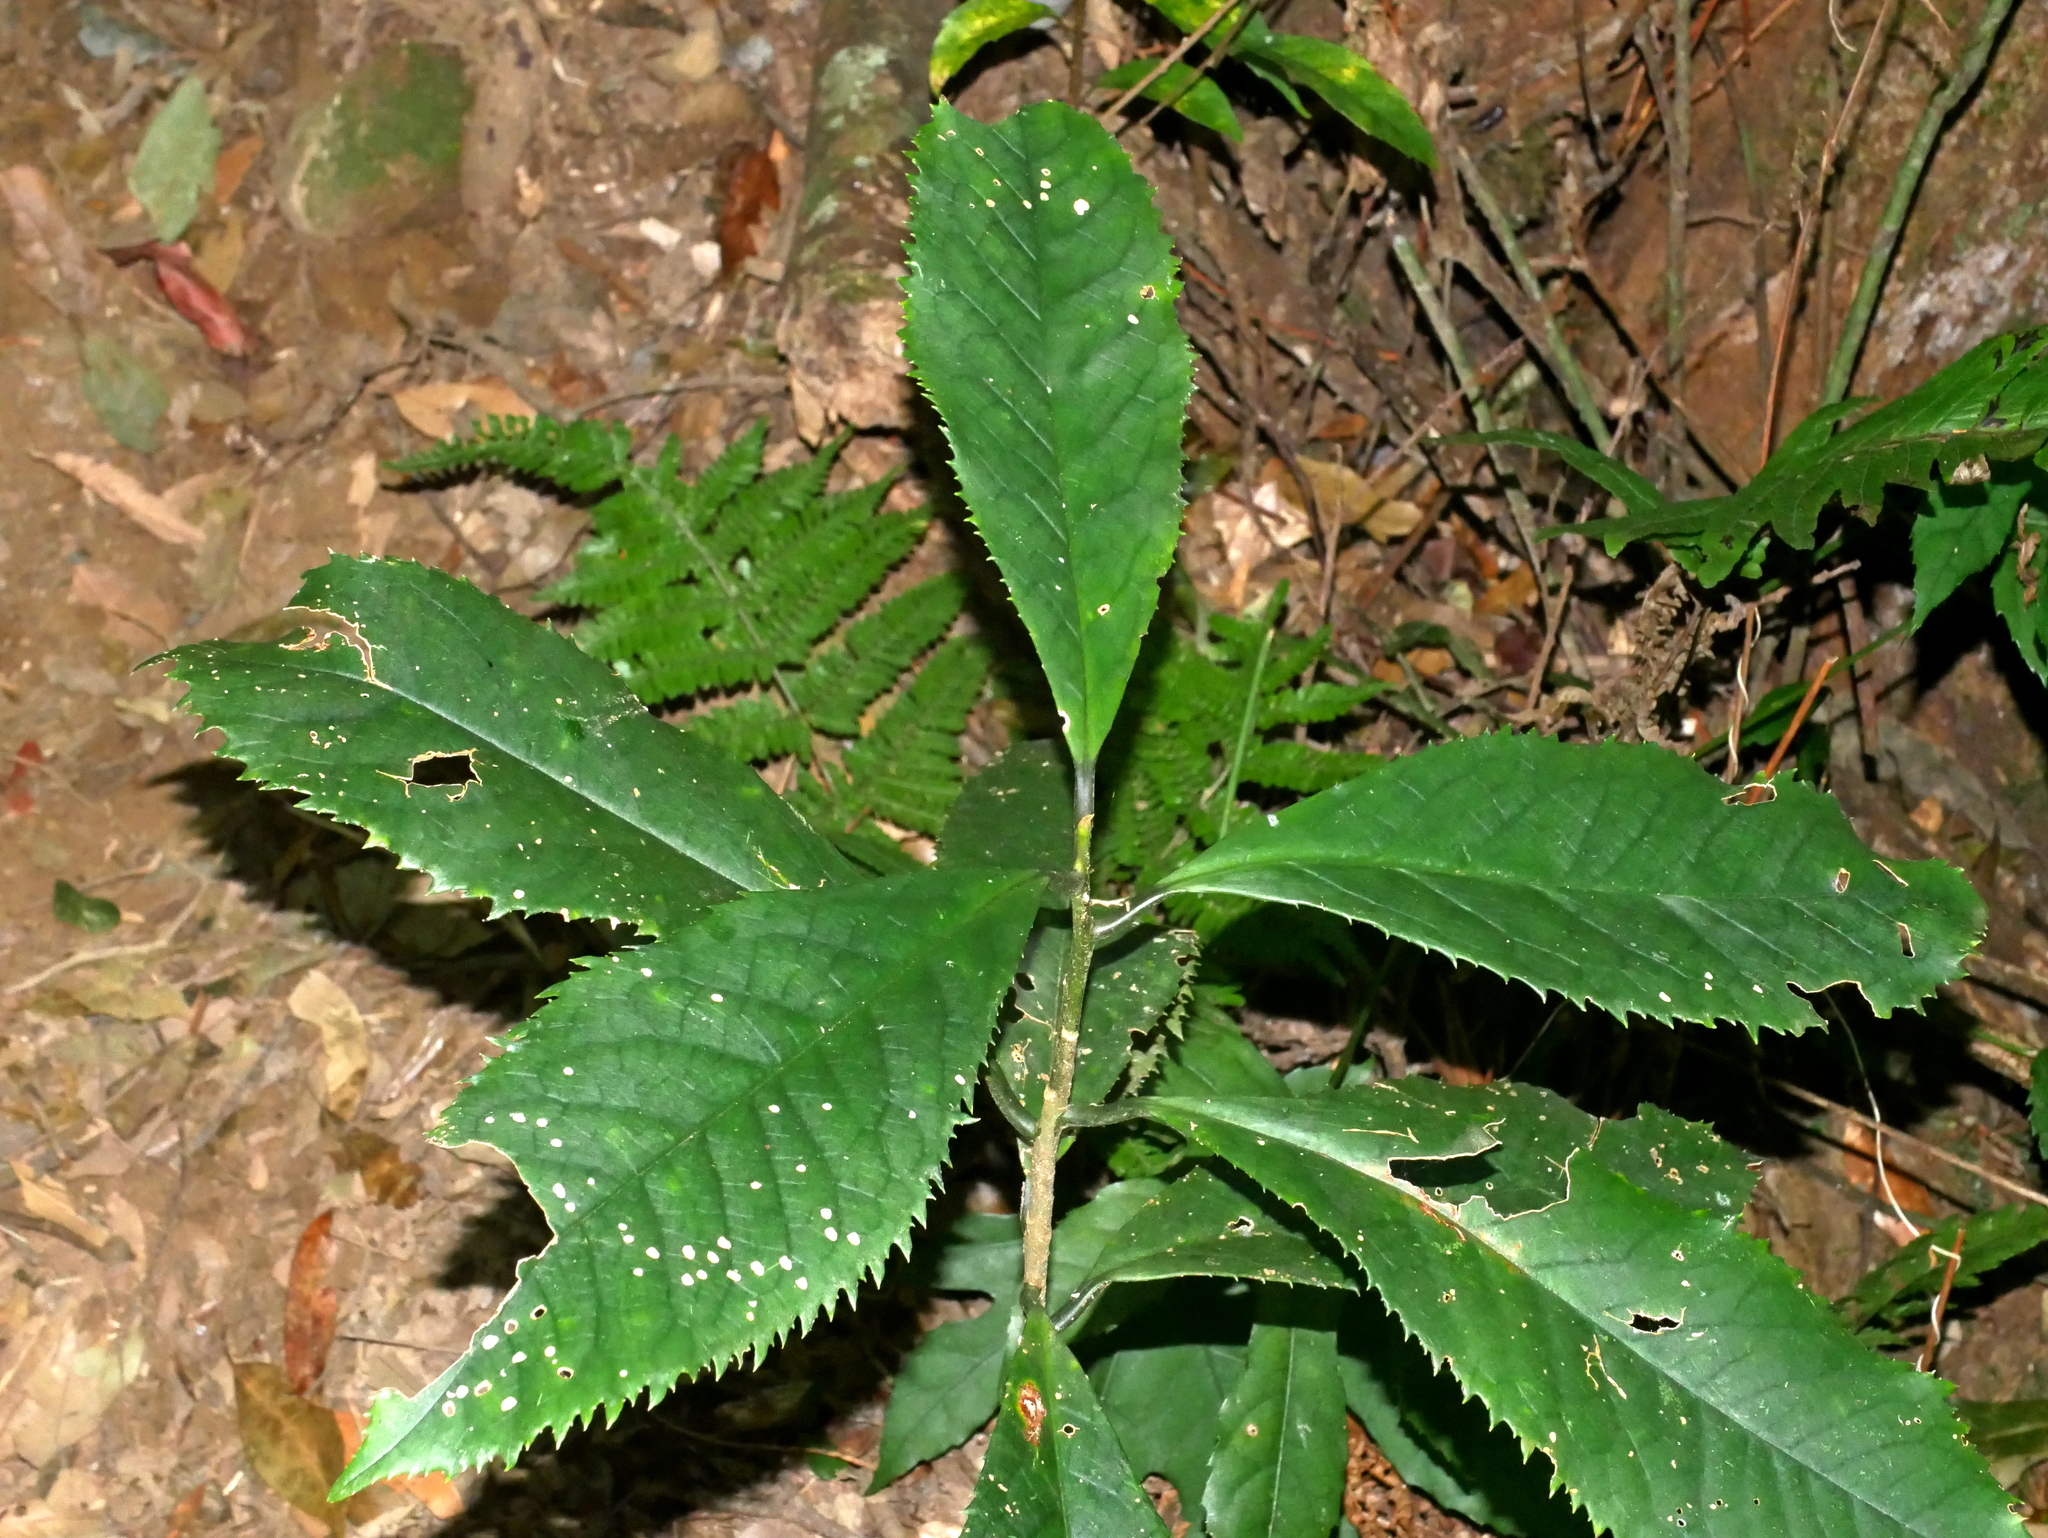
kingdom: Plantae
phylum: Tracheophyta
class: Magnoliopsida
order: Ericales
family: Symplocaceae
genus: Symplocos
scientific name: Symplocos acuminata
